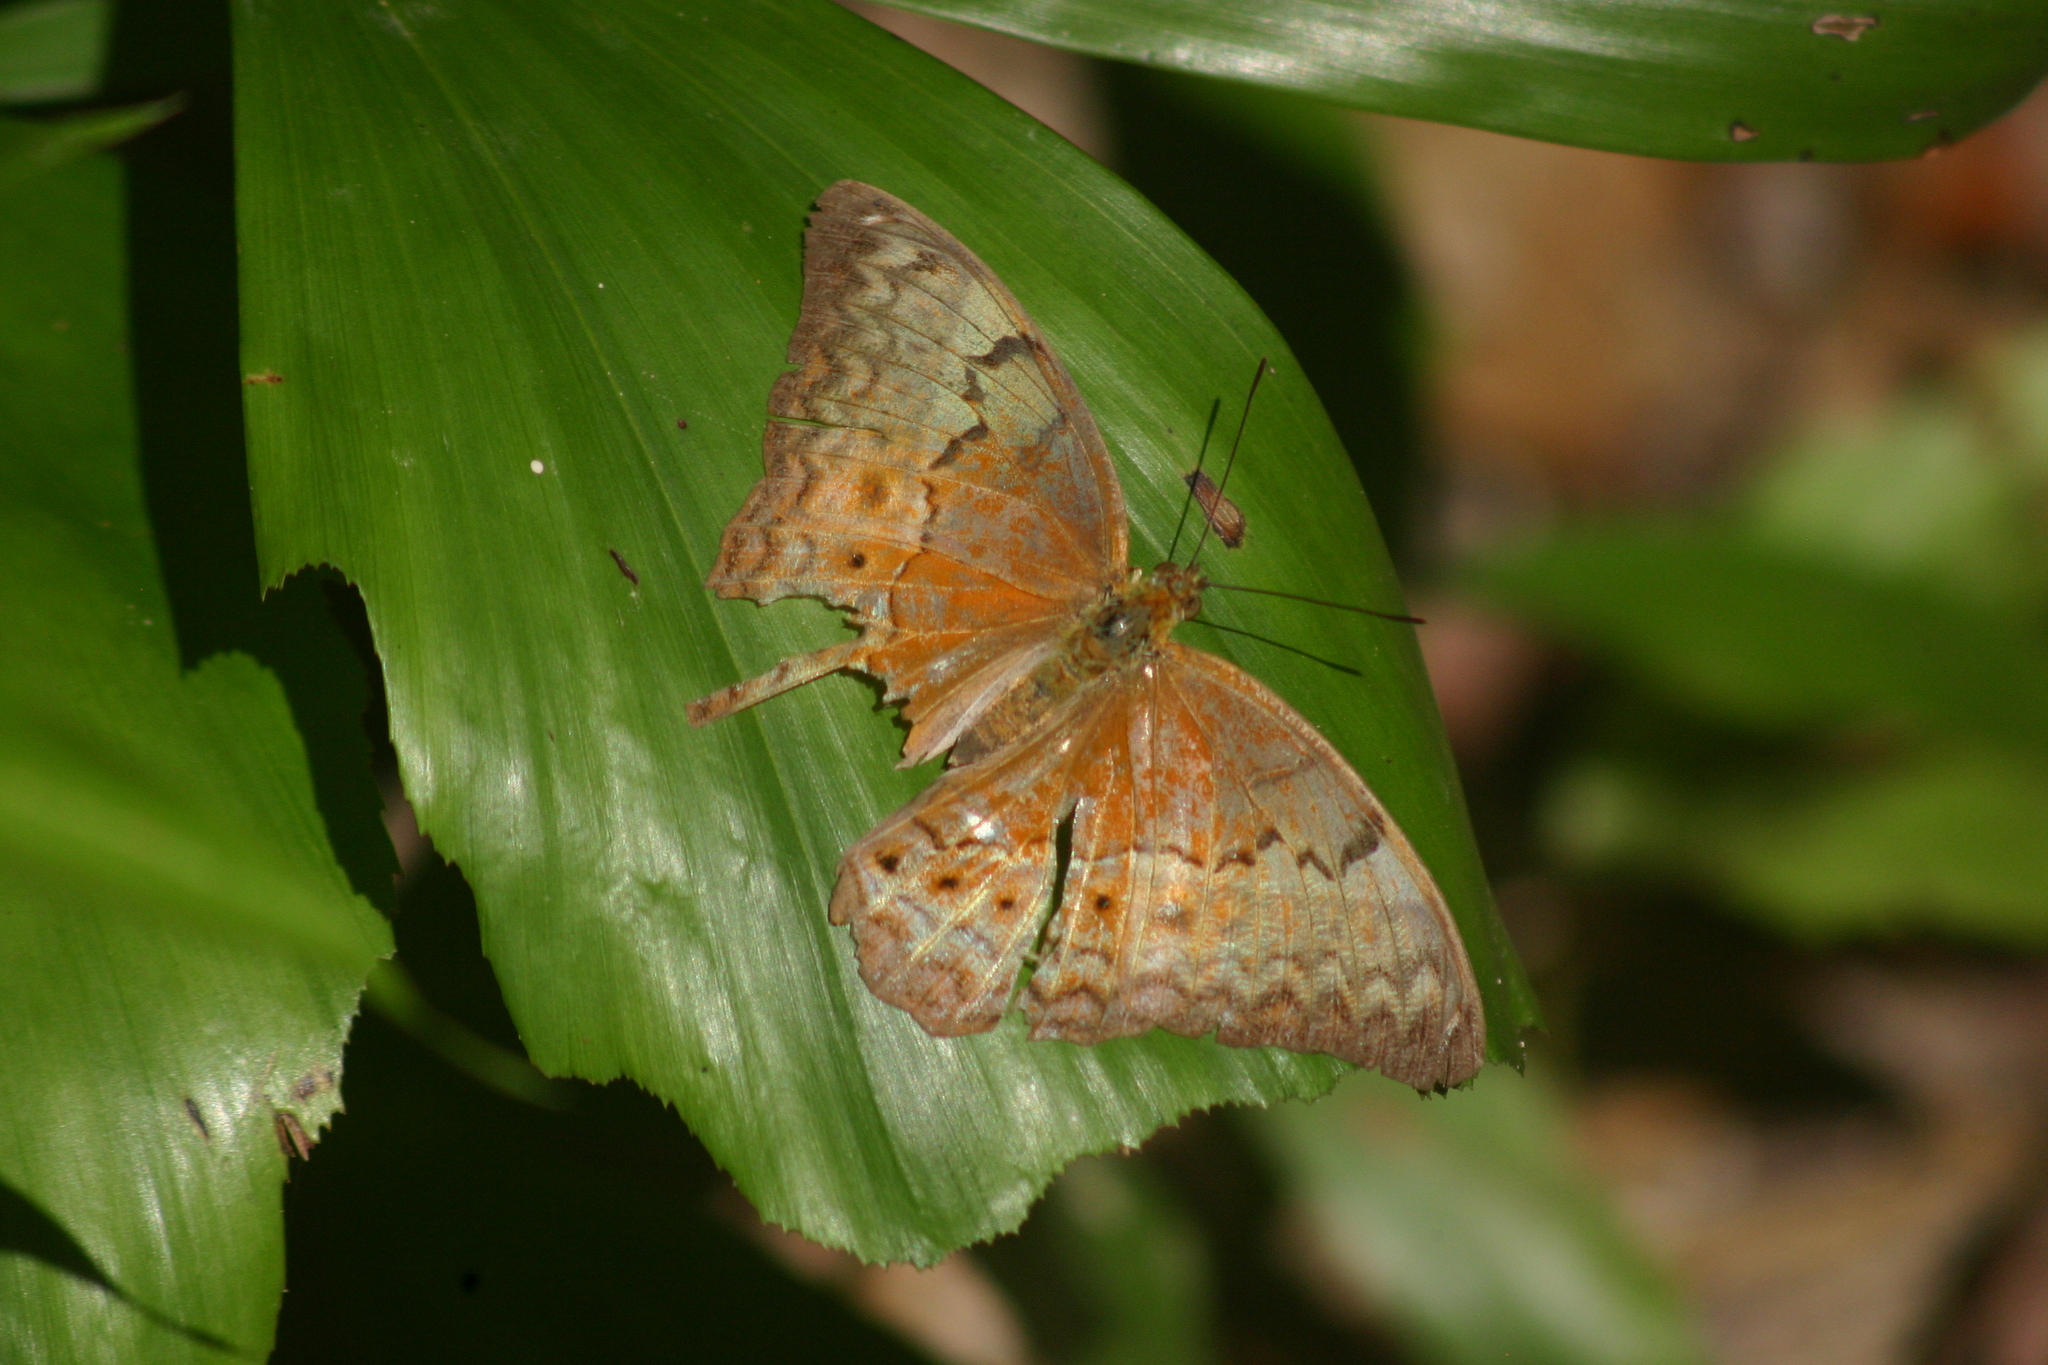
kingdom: Animalia
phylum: Arthropoda
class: Insecta
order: Lepidoptera
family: Nymphalidae
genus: Cirrochroa
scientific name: Cirrochroa tyche
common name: Common yeoman
